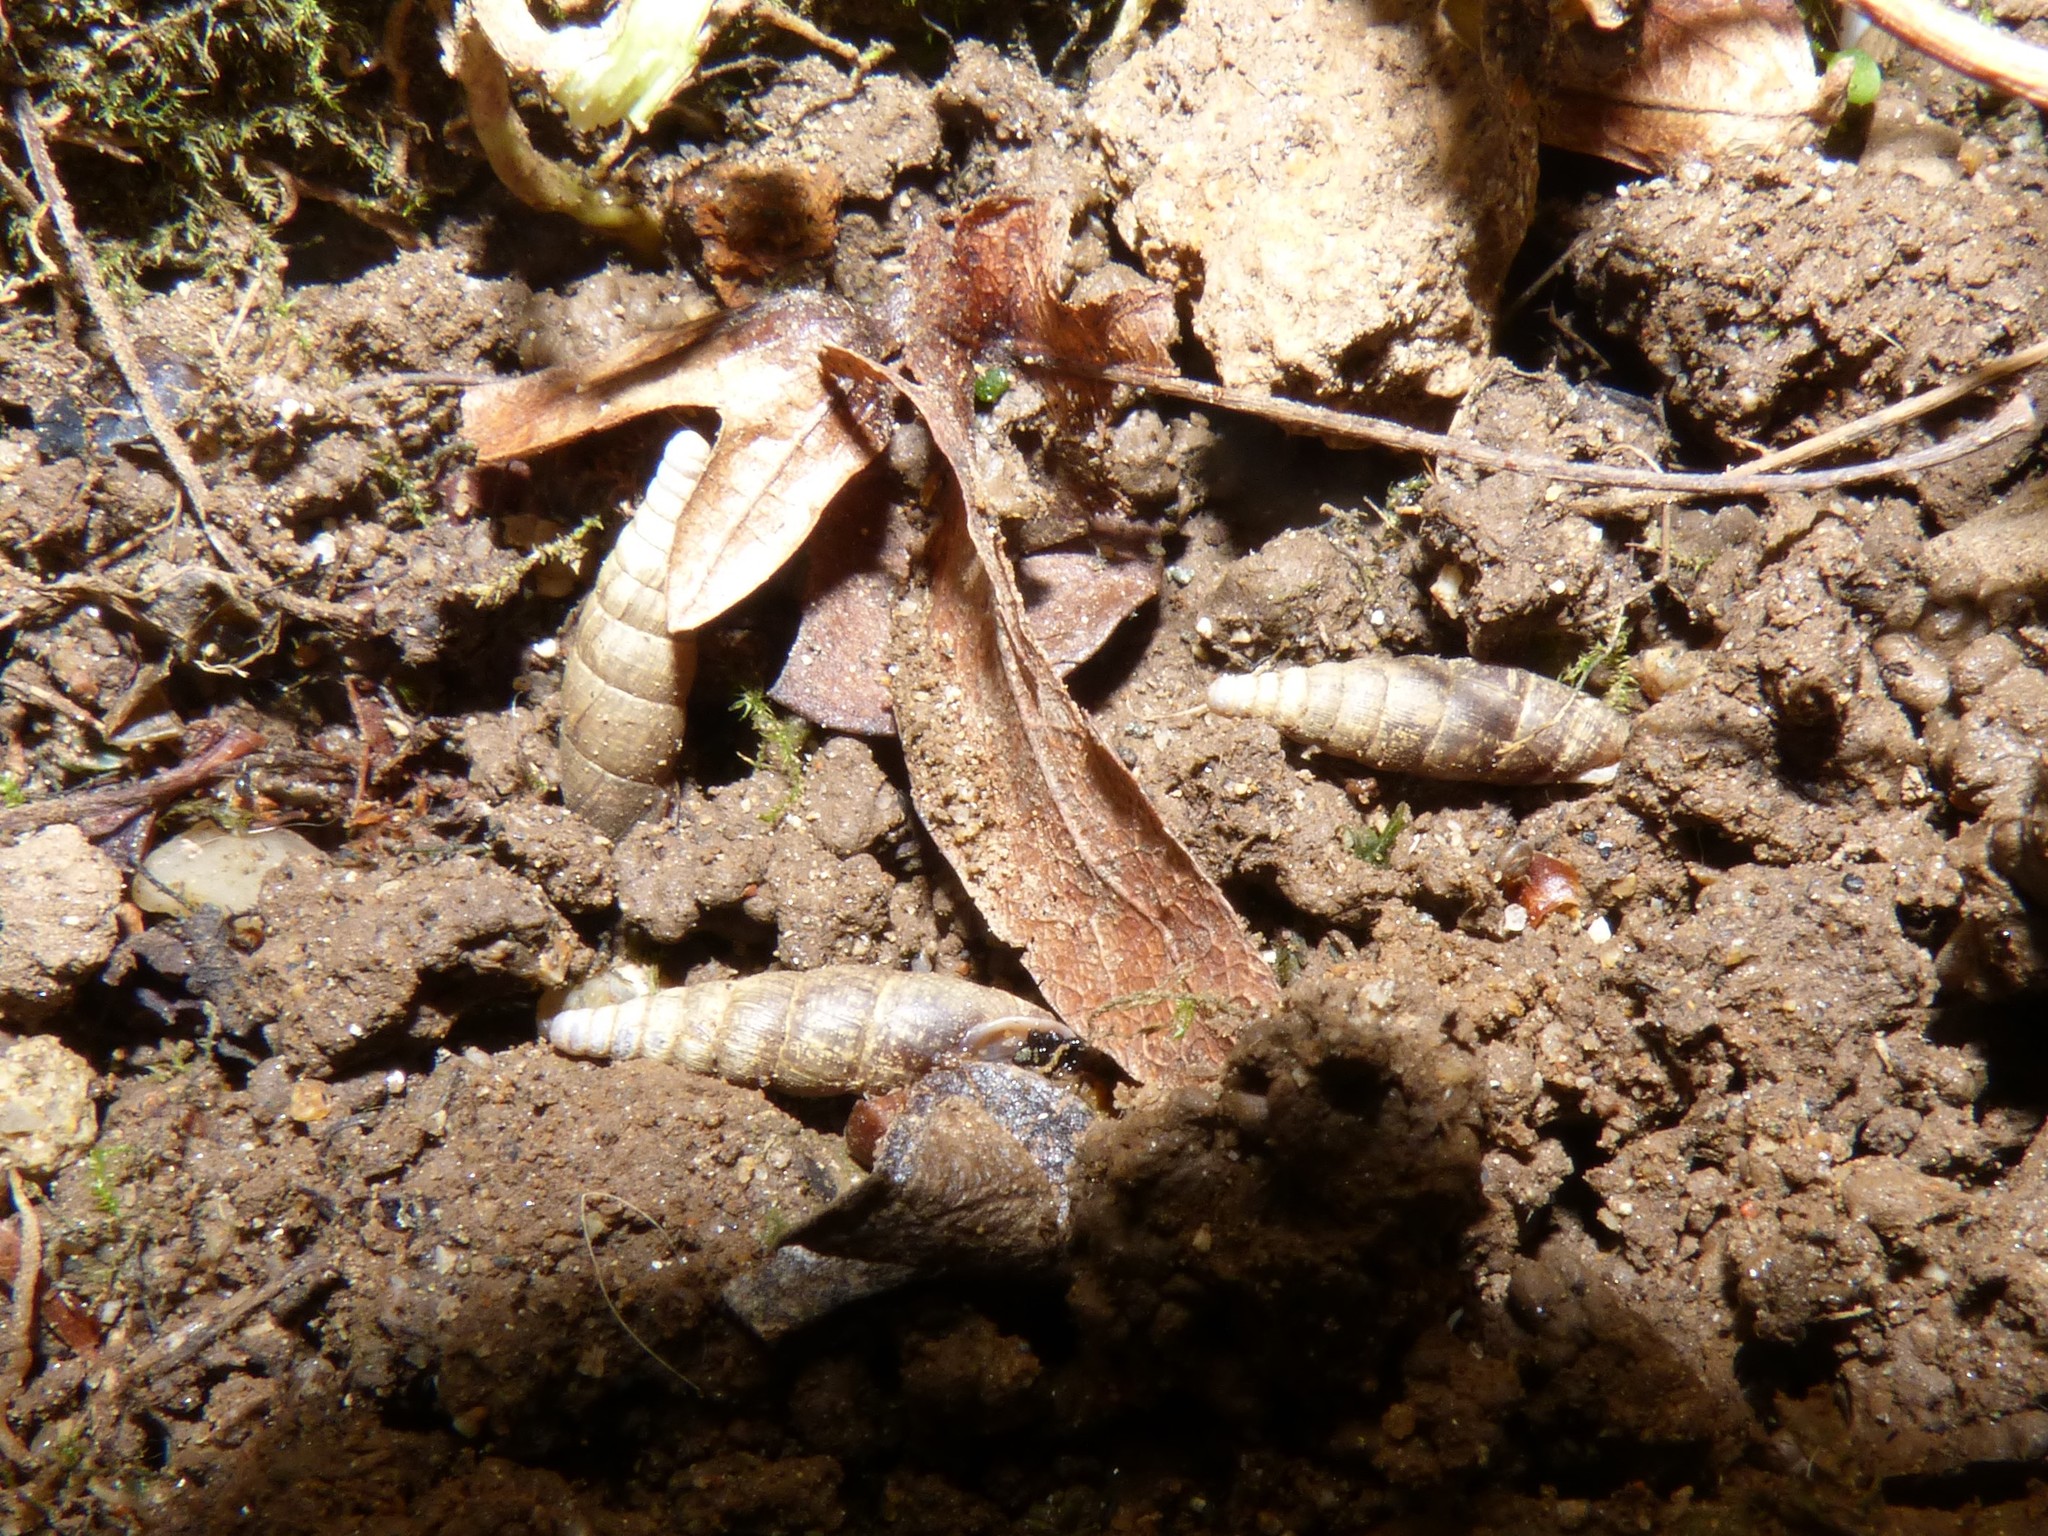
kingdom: Animalia
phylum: Mollusca
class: Gastropoda
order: Stylommatophora
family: Clausiliidae
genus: Charpentieria
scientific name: Charpentieria dyodon
